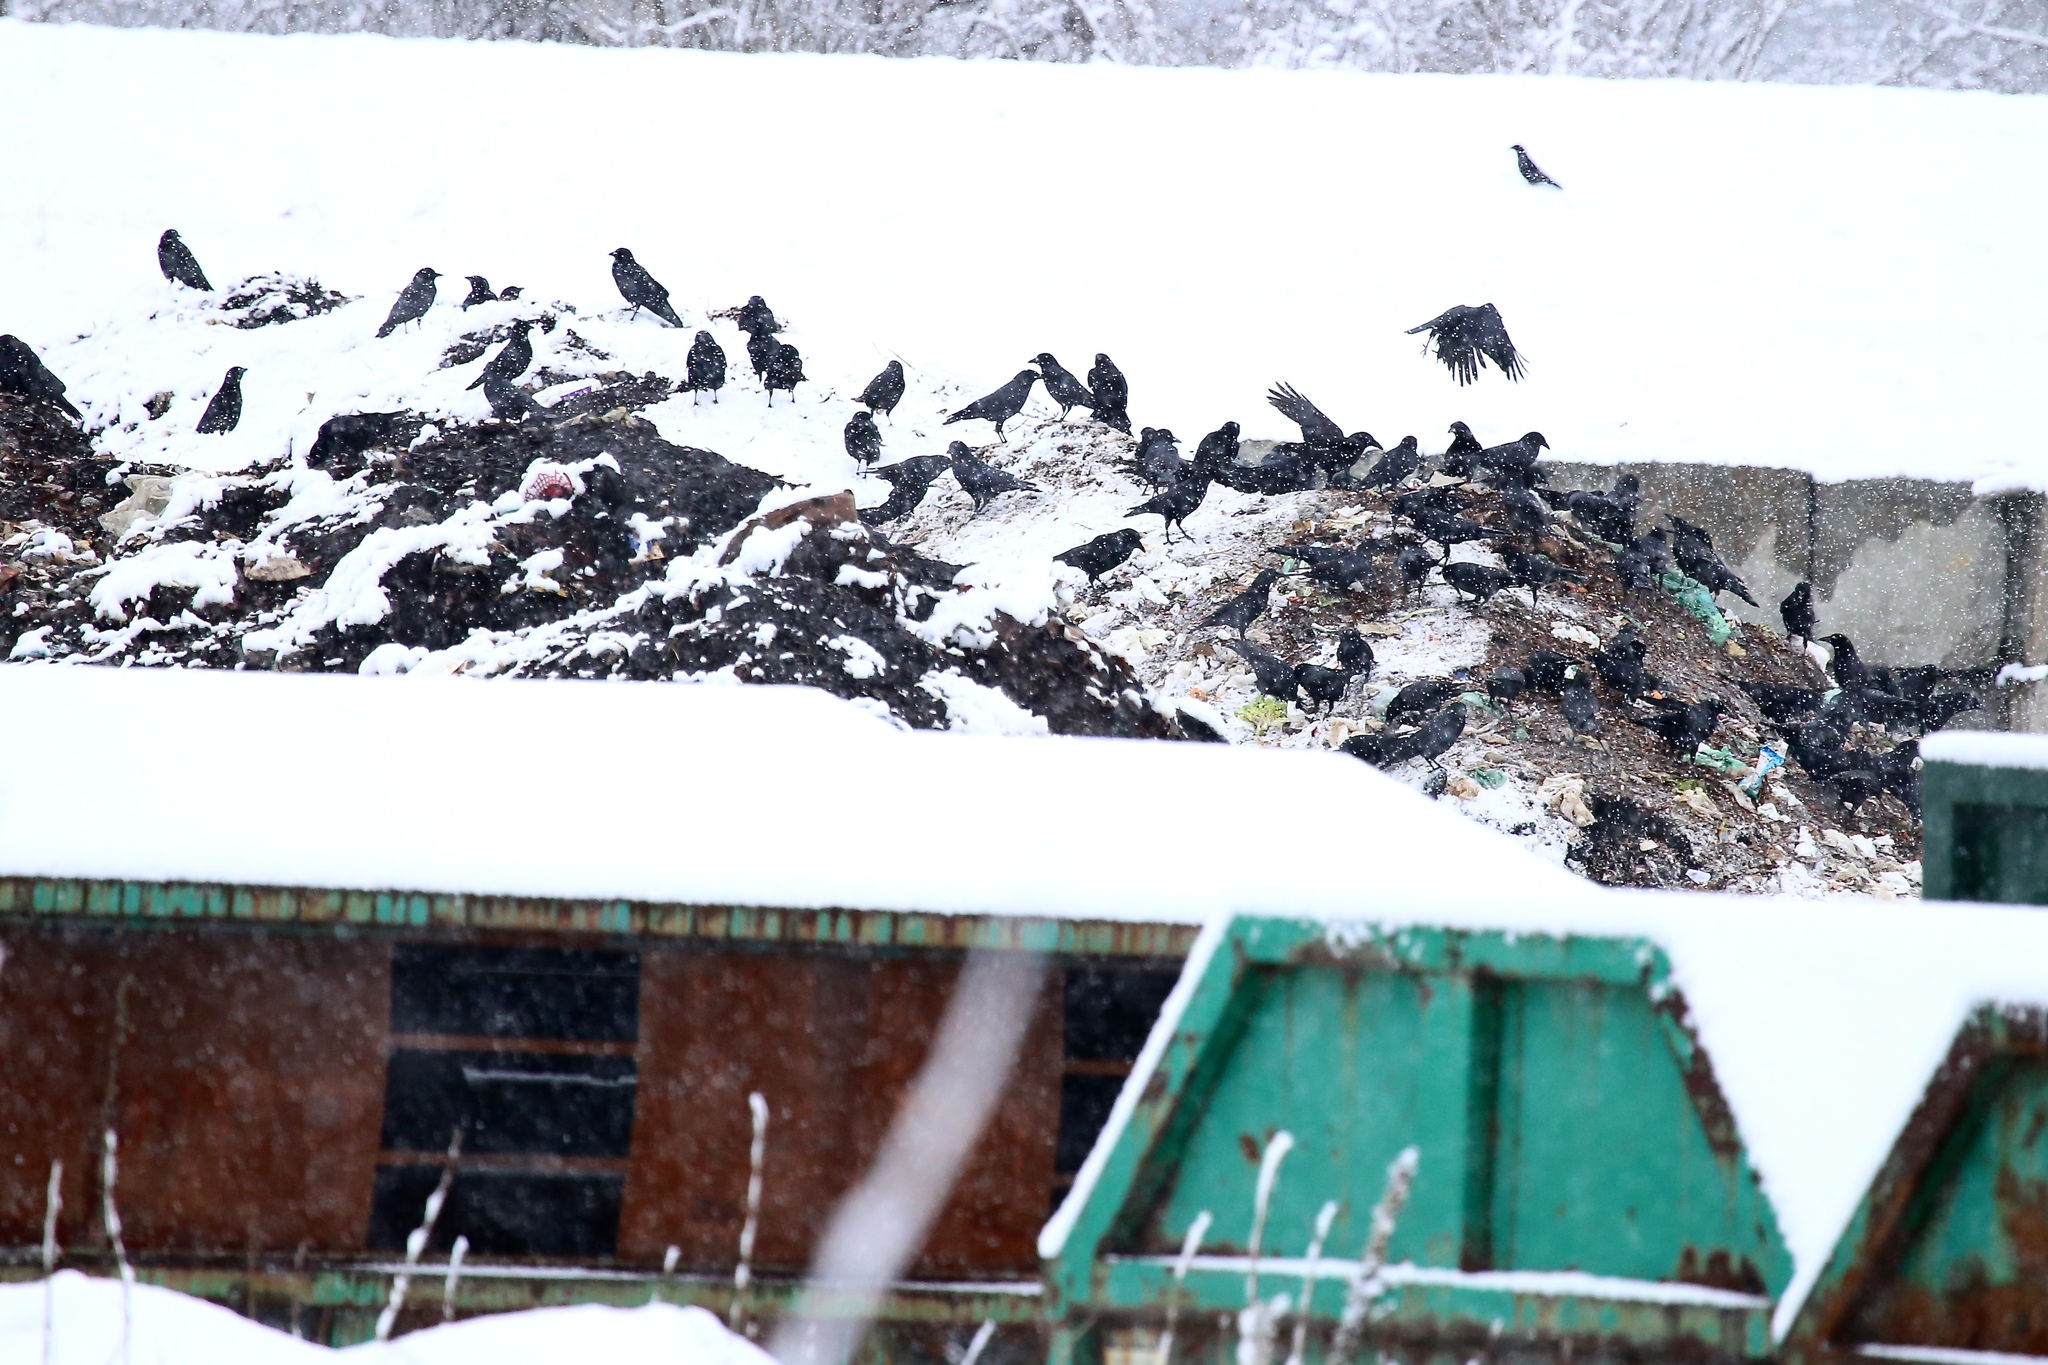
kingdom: Animalia
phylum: Chordata
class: Aves
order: Passeriformes
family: Corvidae
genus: Corvus
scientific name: Corvus brachyrhynchos
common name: American crow
